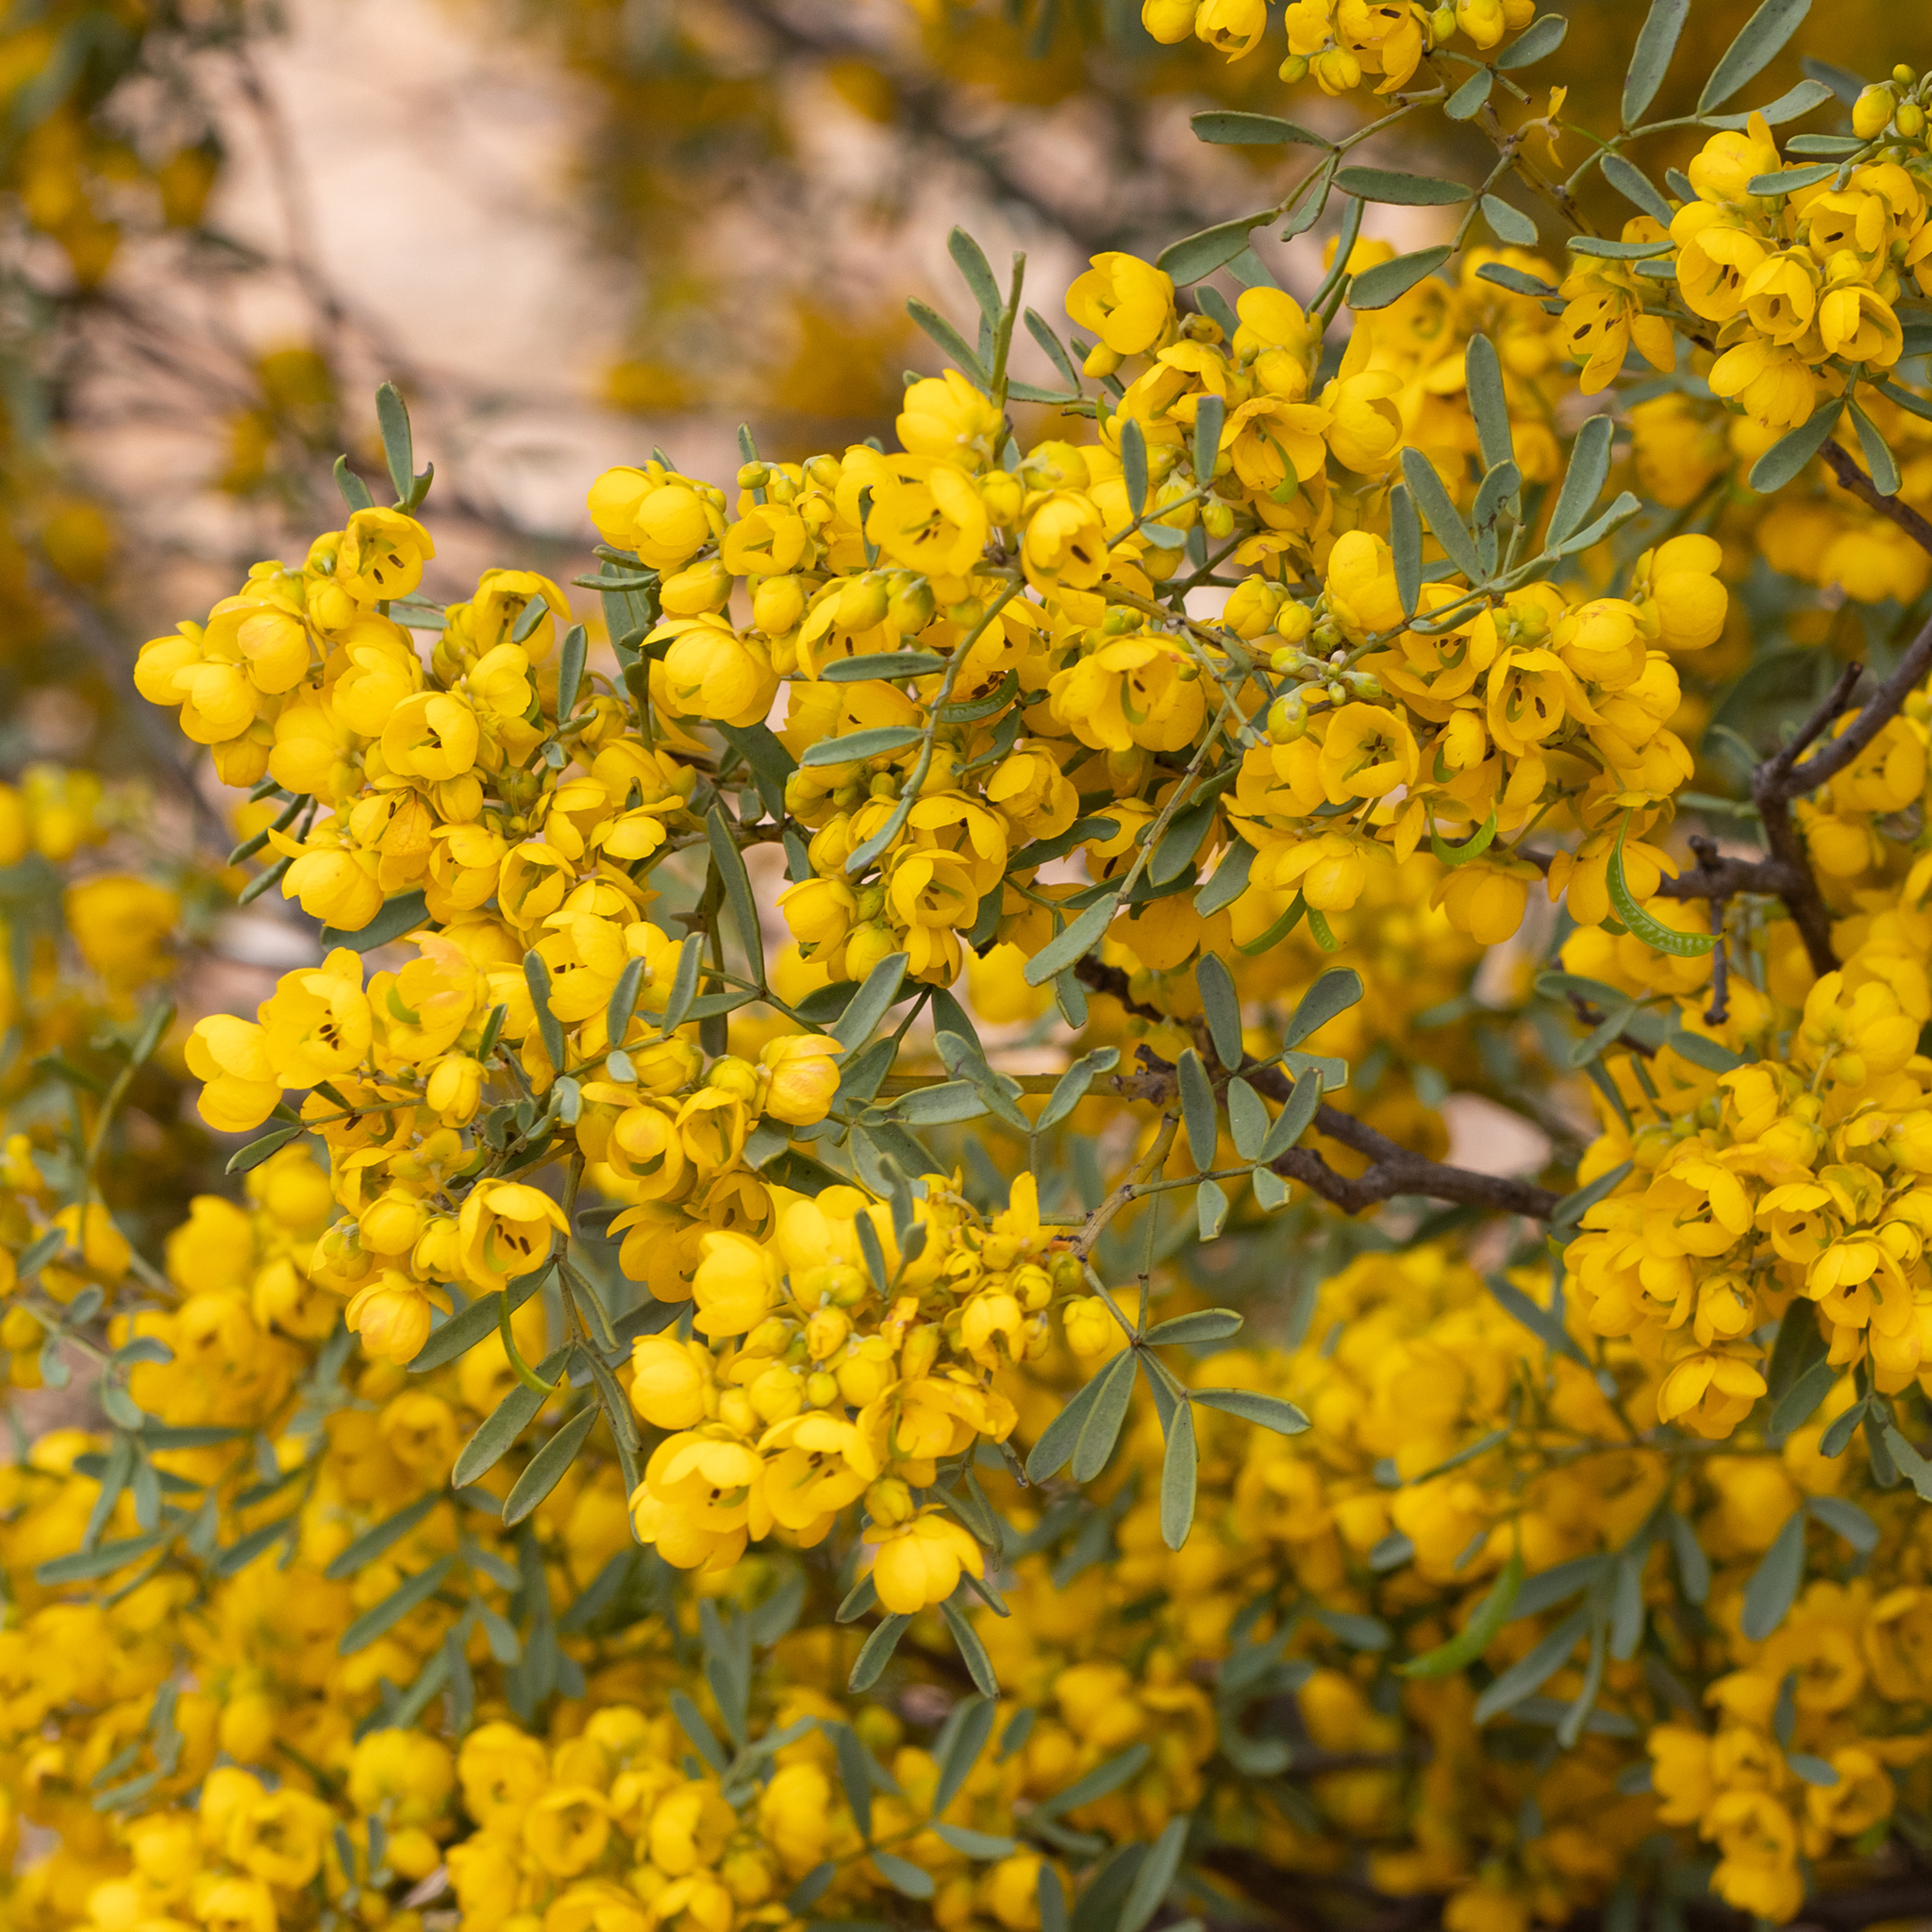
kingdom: Plantae
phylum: Tracheophyta
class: Magnoliopsida
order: Fabales
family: Fabaceae
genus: Senna
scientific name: Senna artemisioides
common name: Burnt-leaved acacia
